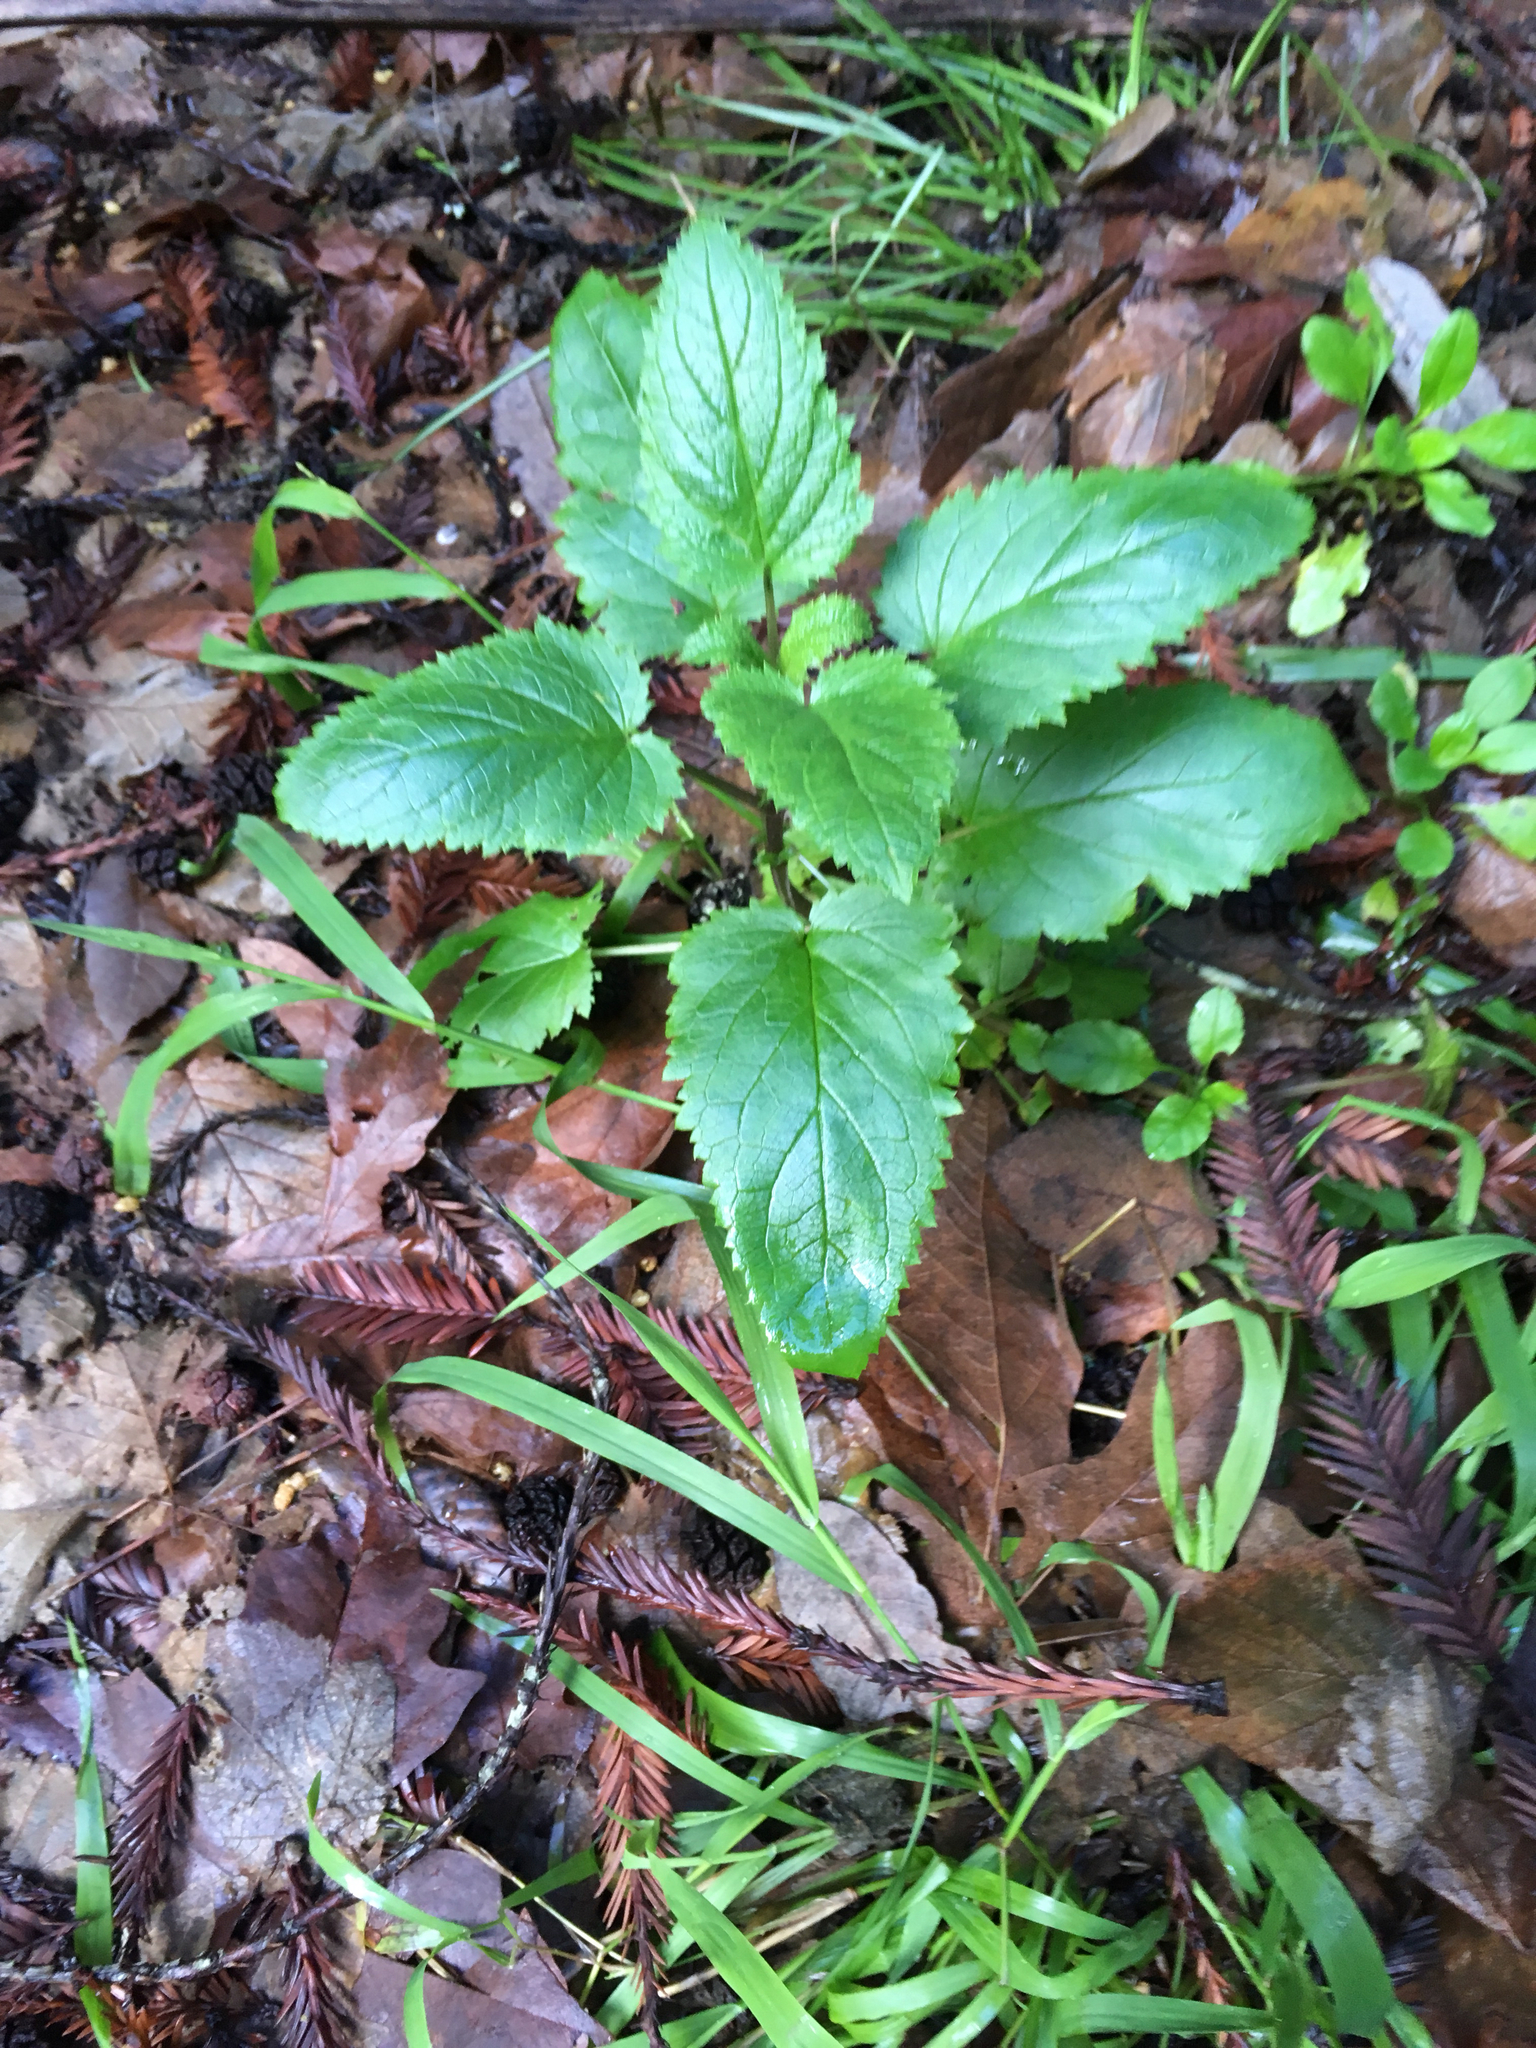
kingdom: Plantae
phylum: Tracheophyta
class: Magnoliopsida
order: Lamiales
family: Scrophulariaceae
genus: Scrophularia
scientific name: Scrophularia californica
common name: California figwort
